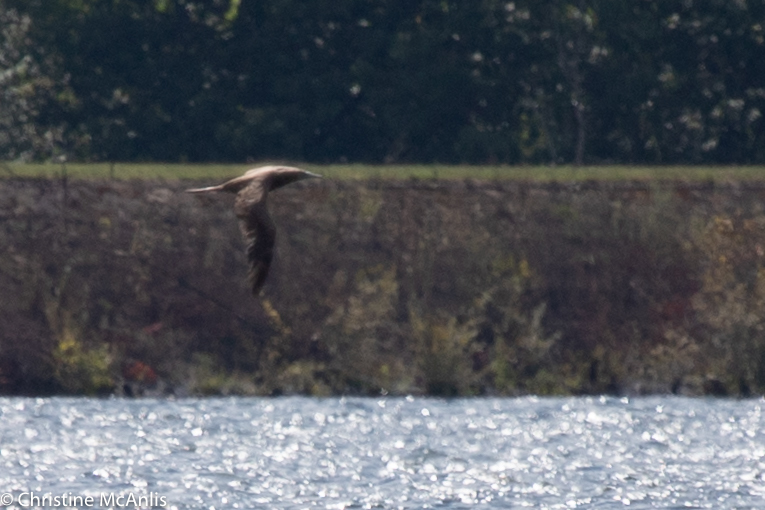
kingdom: Animalia
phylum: Chordata
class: Aves
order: Suliformes
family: Sulidae
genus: Sula
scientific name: Sula leucogaster
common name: Brown booby
